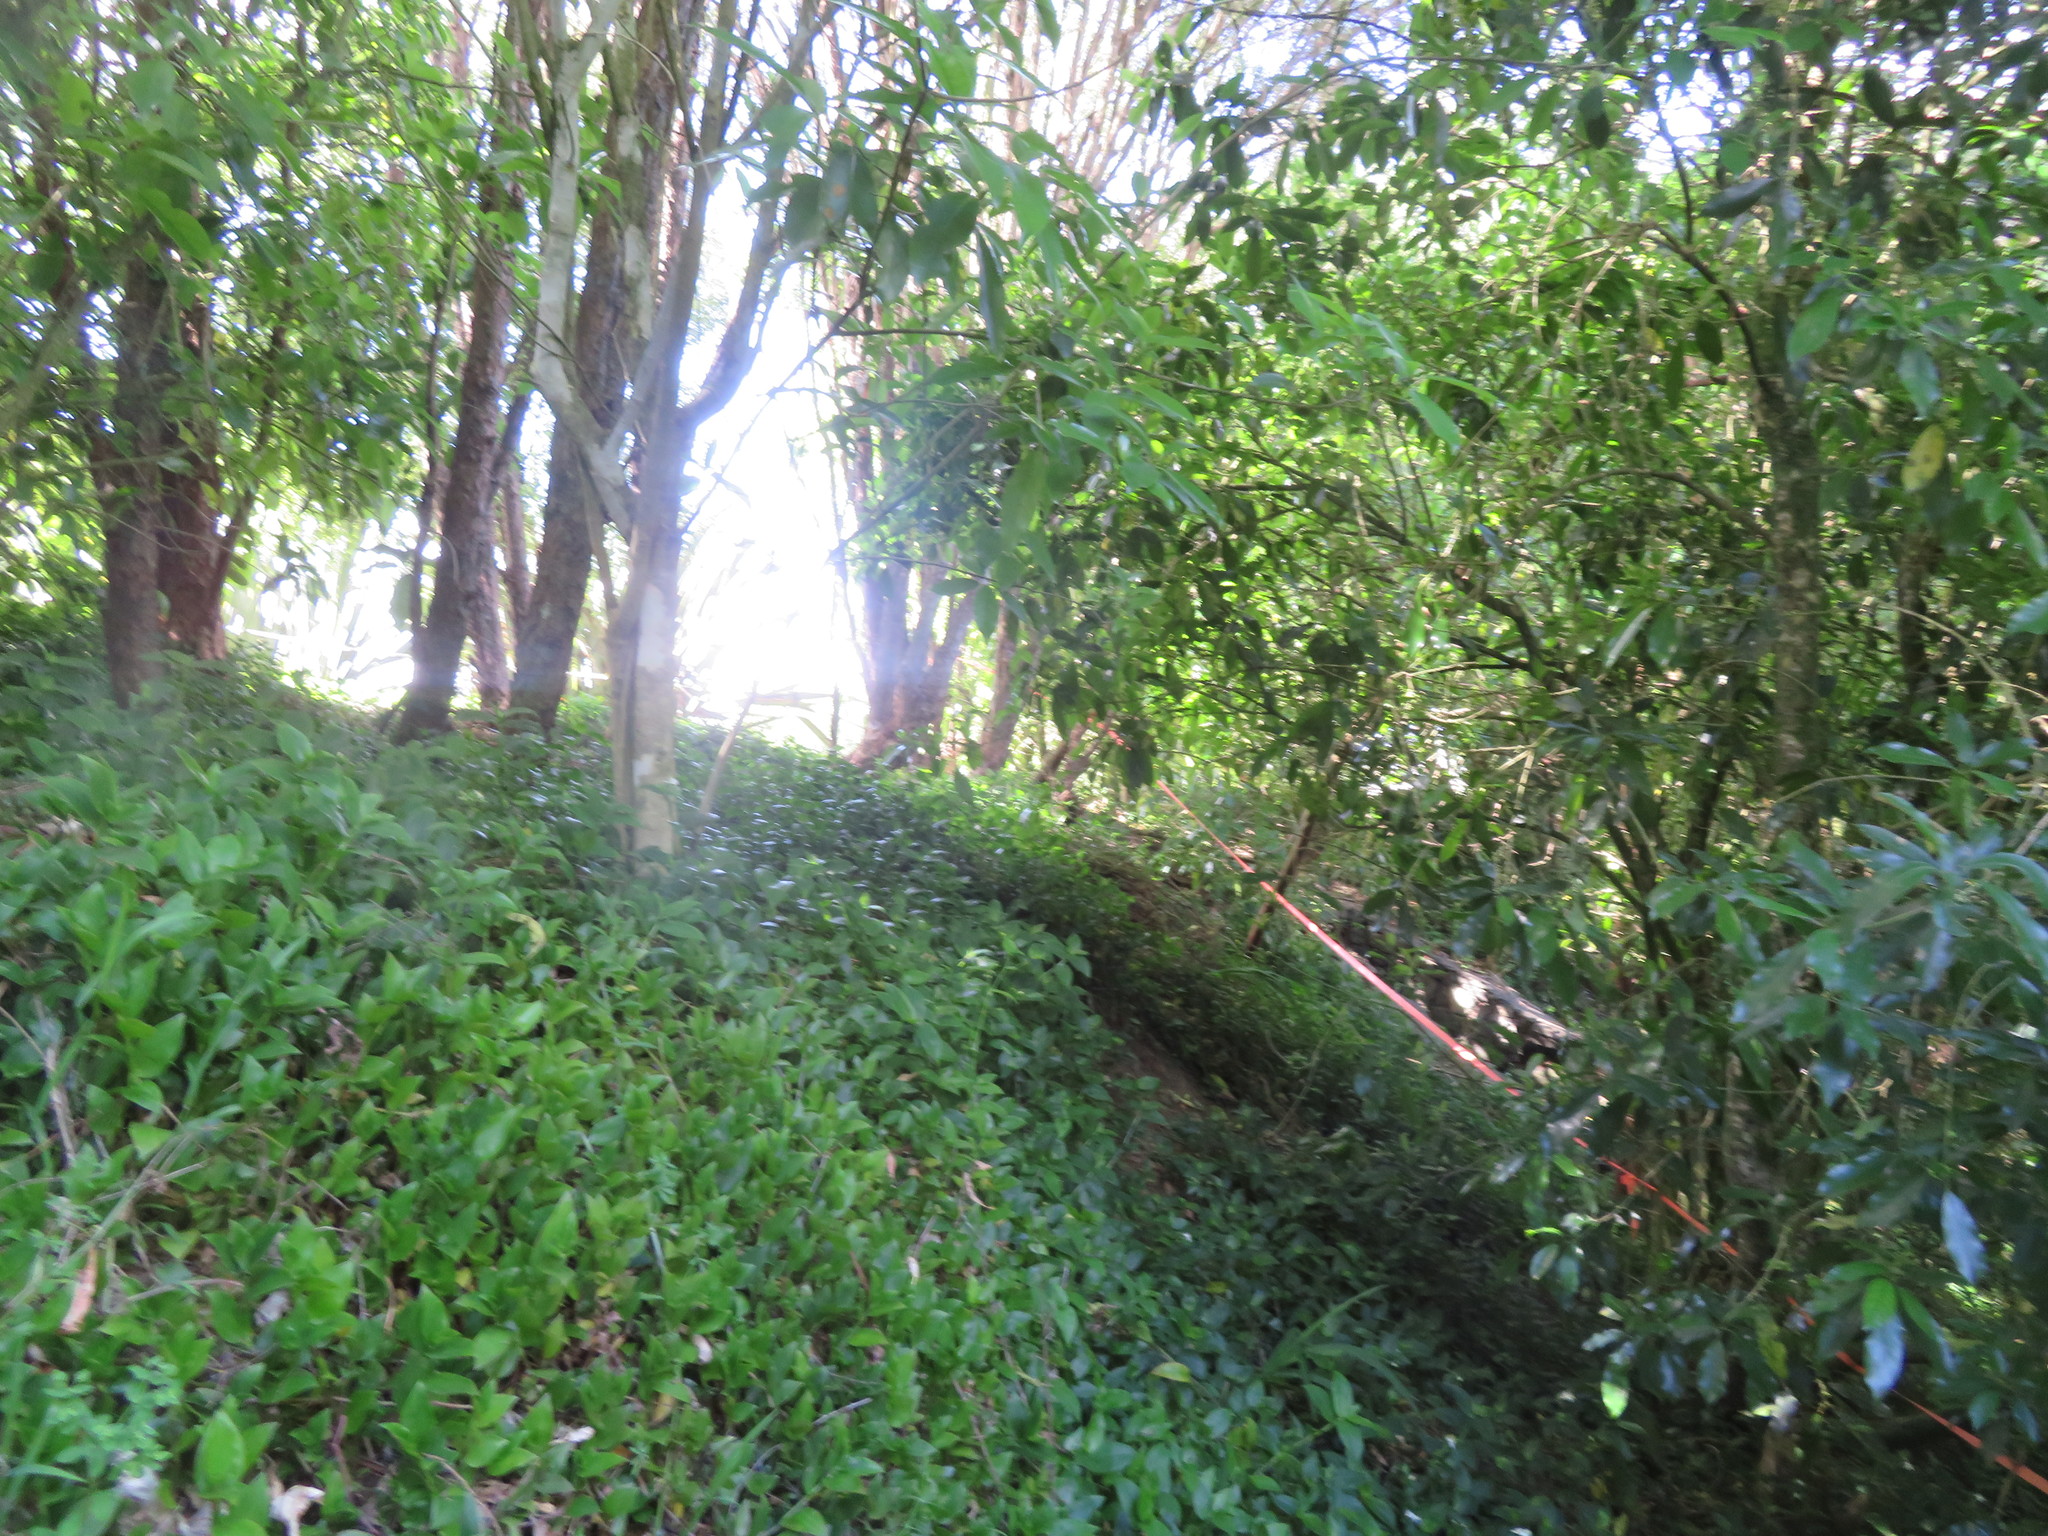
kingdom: Plantae
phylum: Tracheophyta
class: Liliopsida
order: Commelinales
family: Commelinaceae
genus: Tradescantia
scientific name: Tradescantia fluminensis
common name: Wandering-jew
